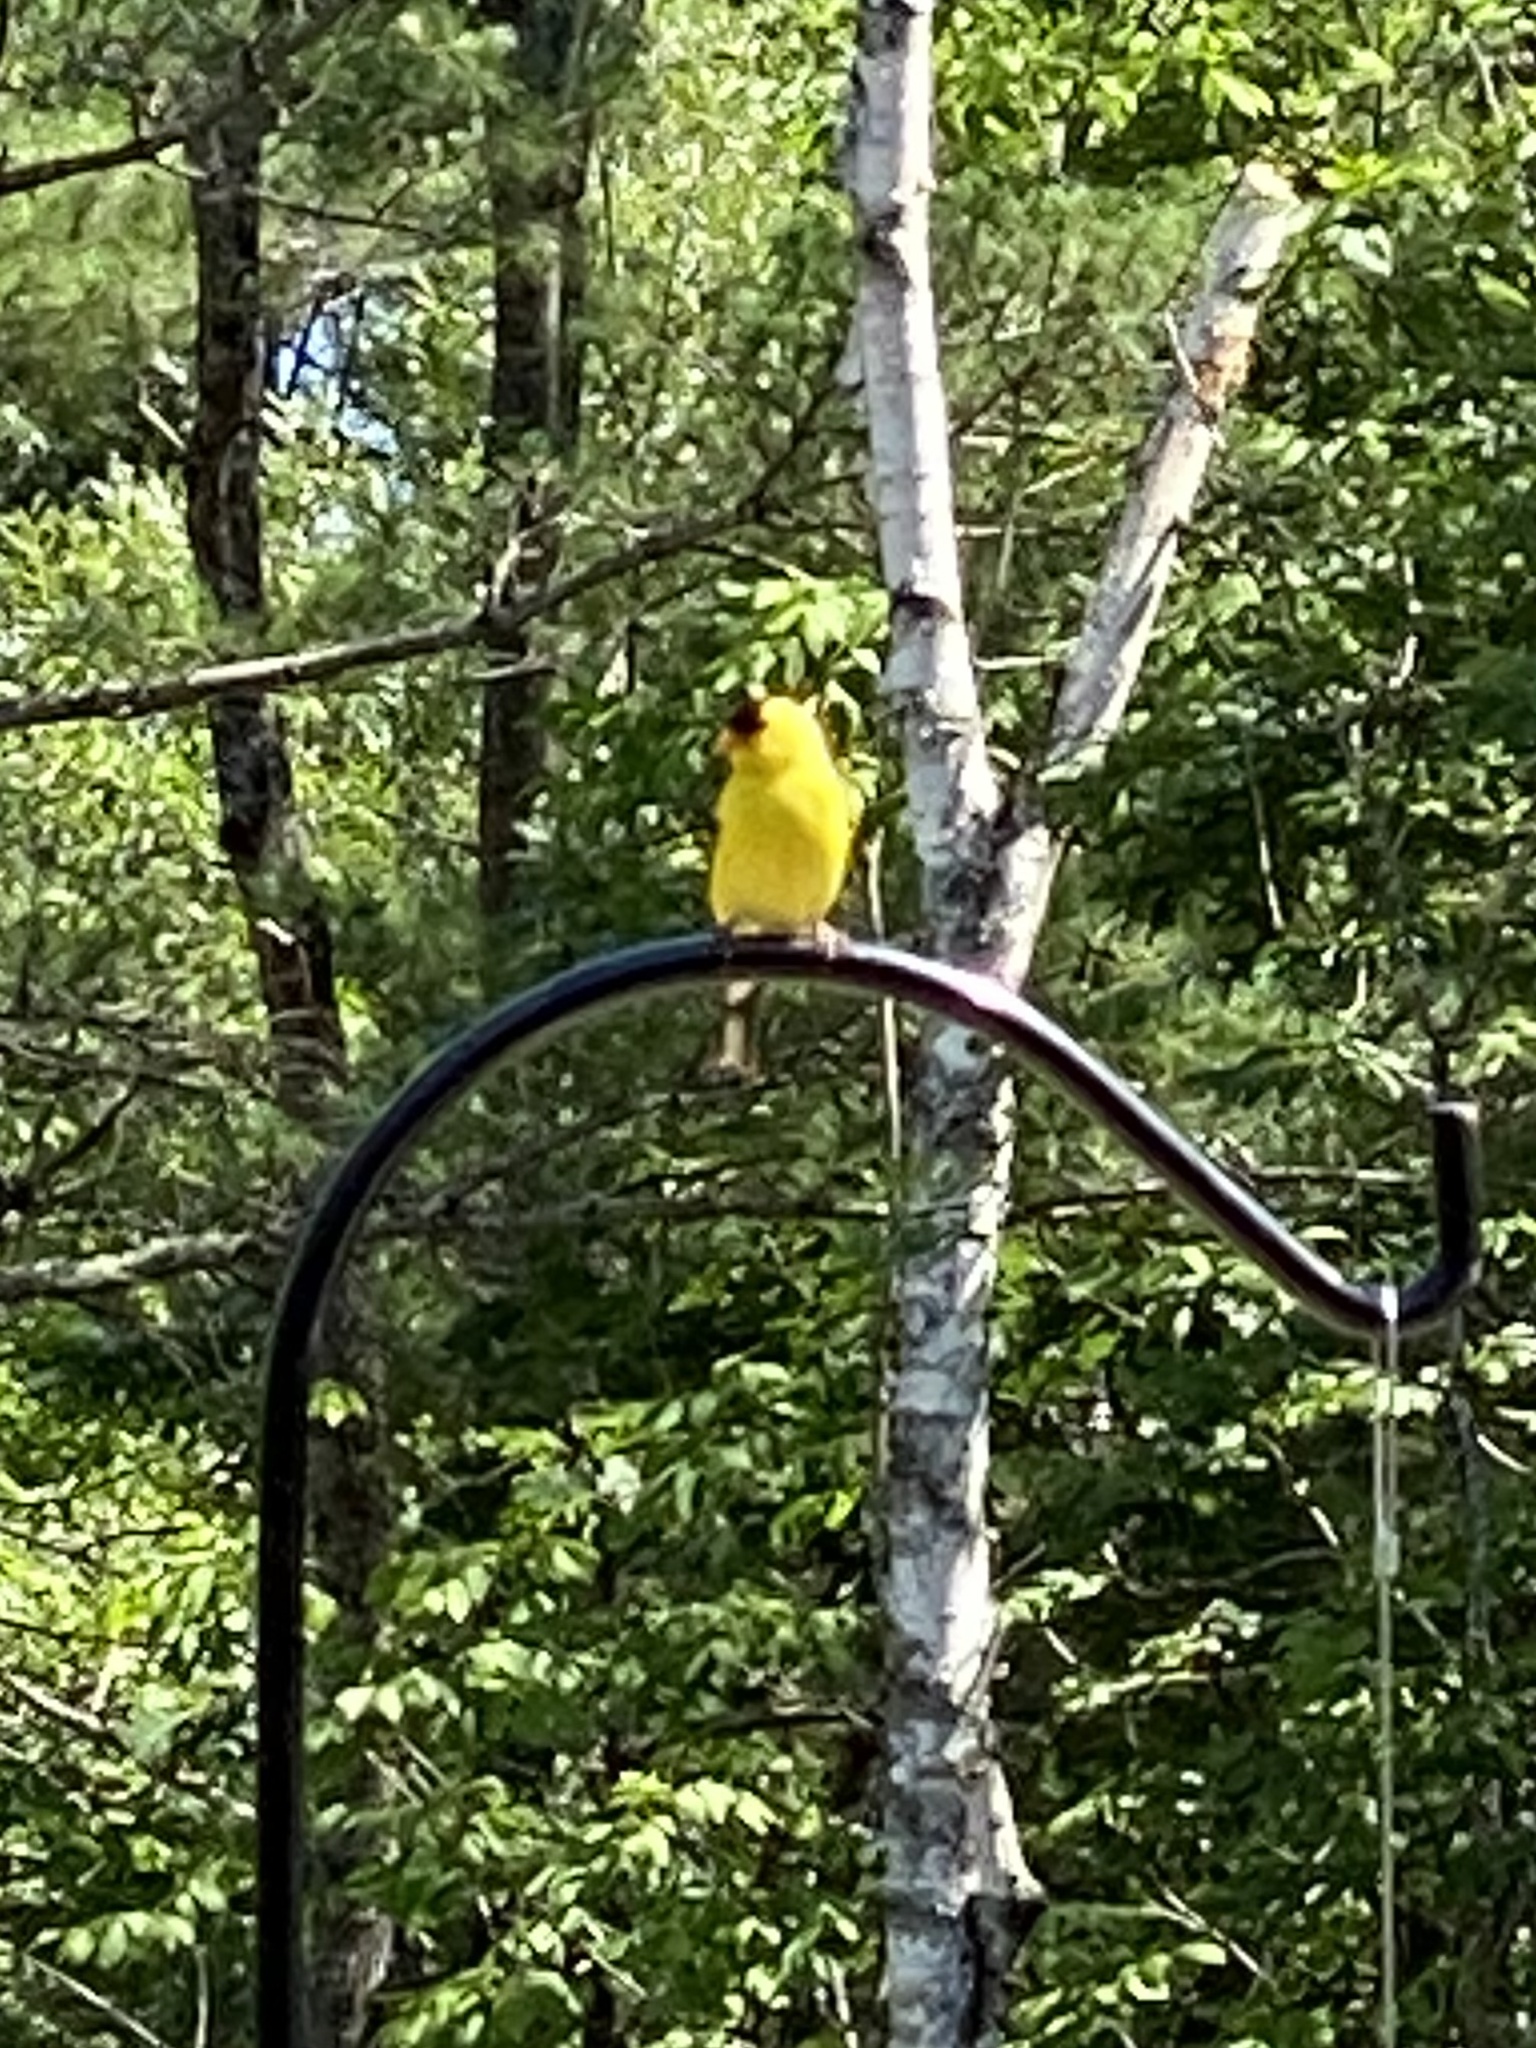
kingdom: Animalia
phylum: Chordata
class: Aves
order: Passeriformes
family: Fringillidae
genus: Spinus
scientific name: Spinus tristis
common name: American goldfinch
